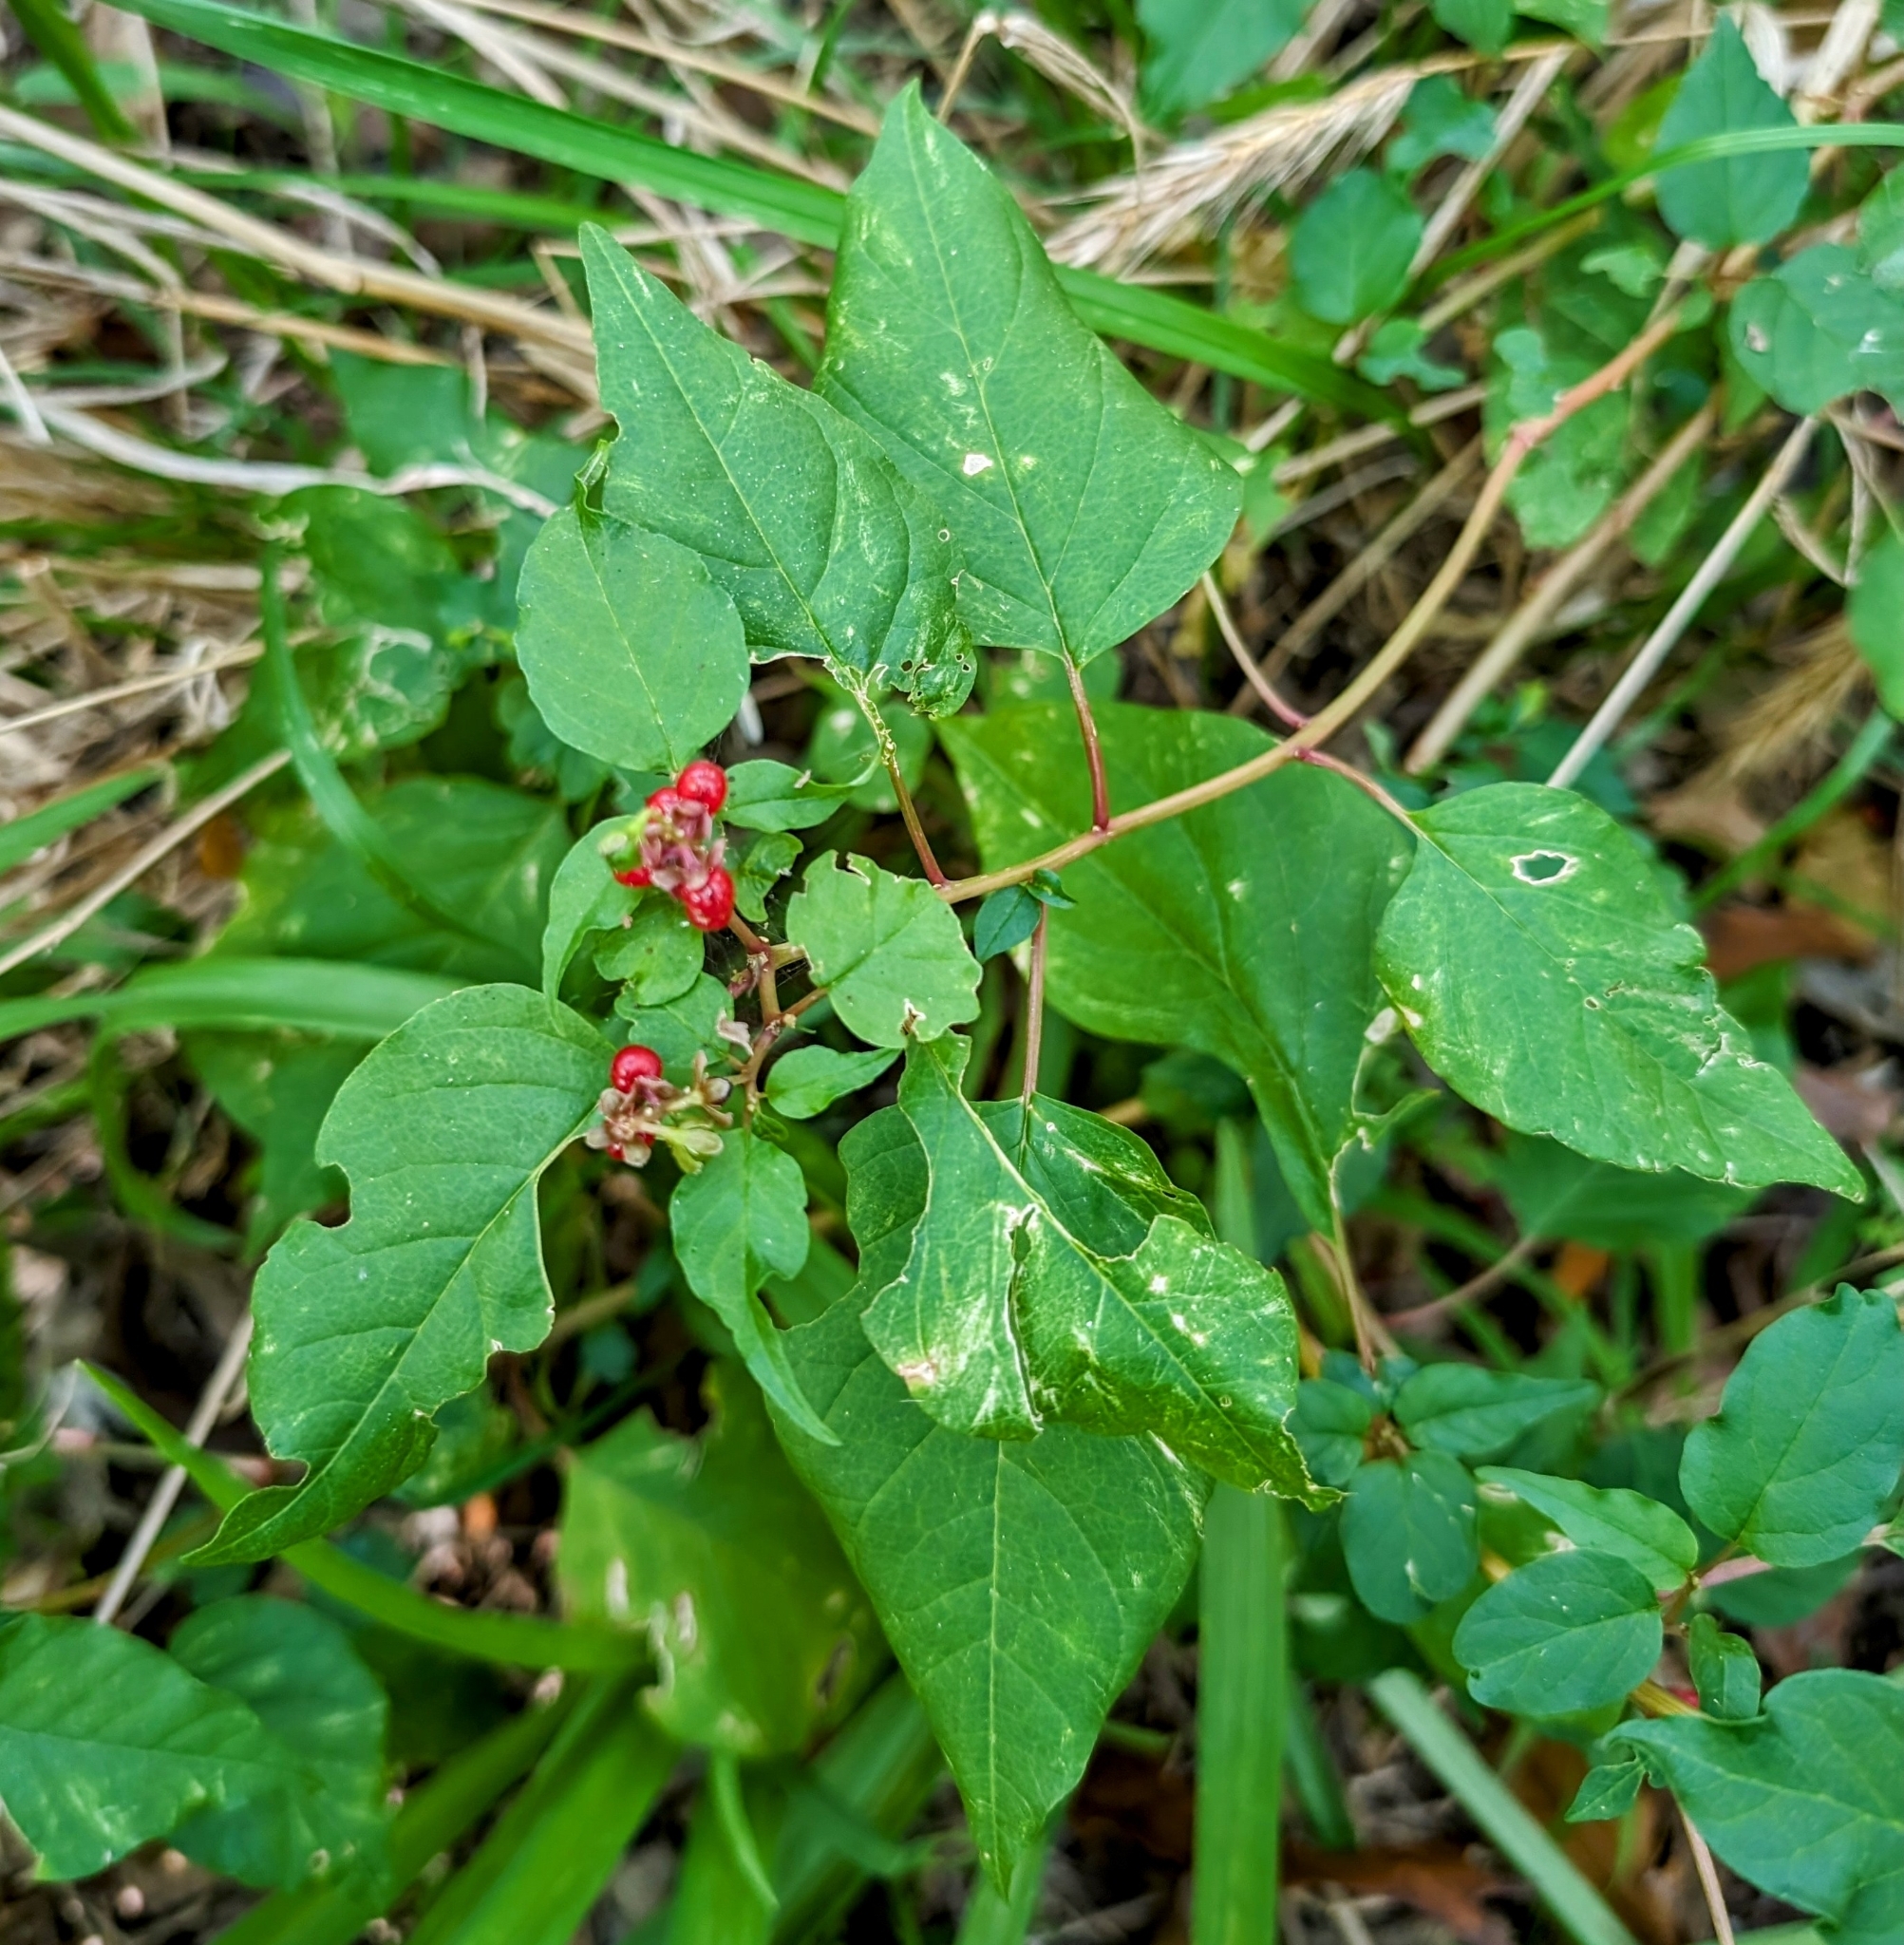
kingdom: Plantae
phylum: Tracheophyta
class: Magnoliopsida
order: Caryophyllales
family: Phytolaccaceae
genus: Rivina
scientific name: Rivina humilis
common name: Rougeplant
